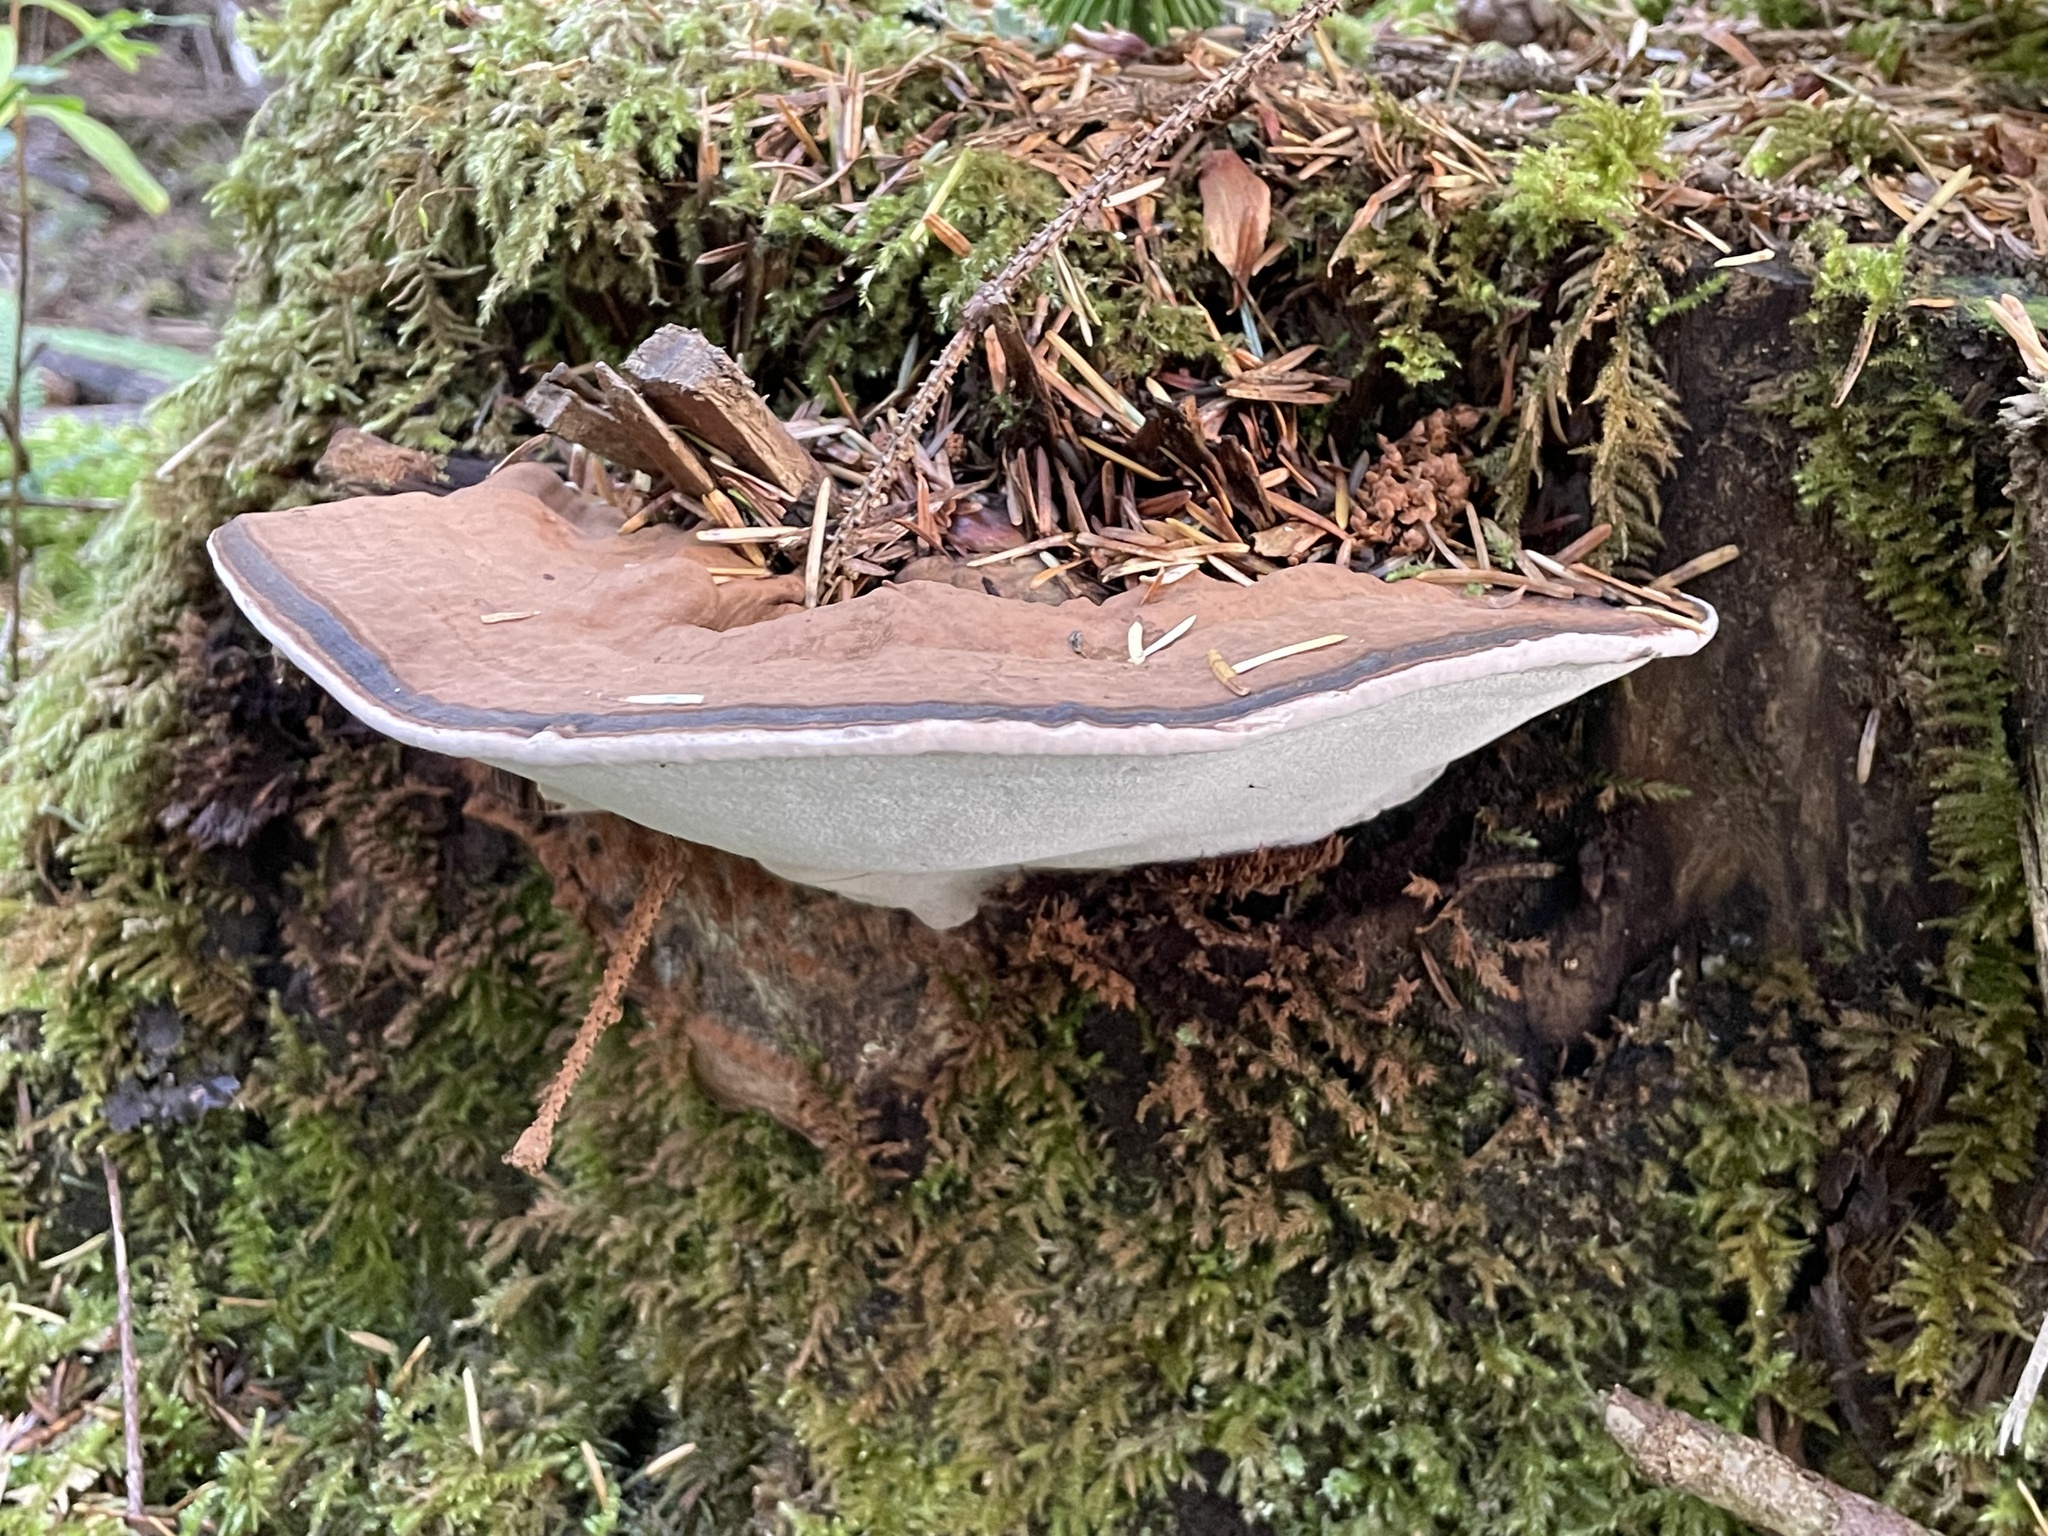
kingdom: Fungi
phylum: Basidiomycota
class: Agaricomycetes
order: Polyporales
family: Polyporaceae
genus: Ganoderma
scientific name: Ganoderma applanatum
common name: Artist's bracket
